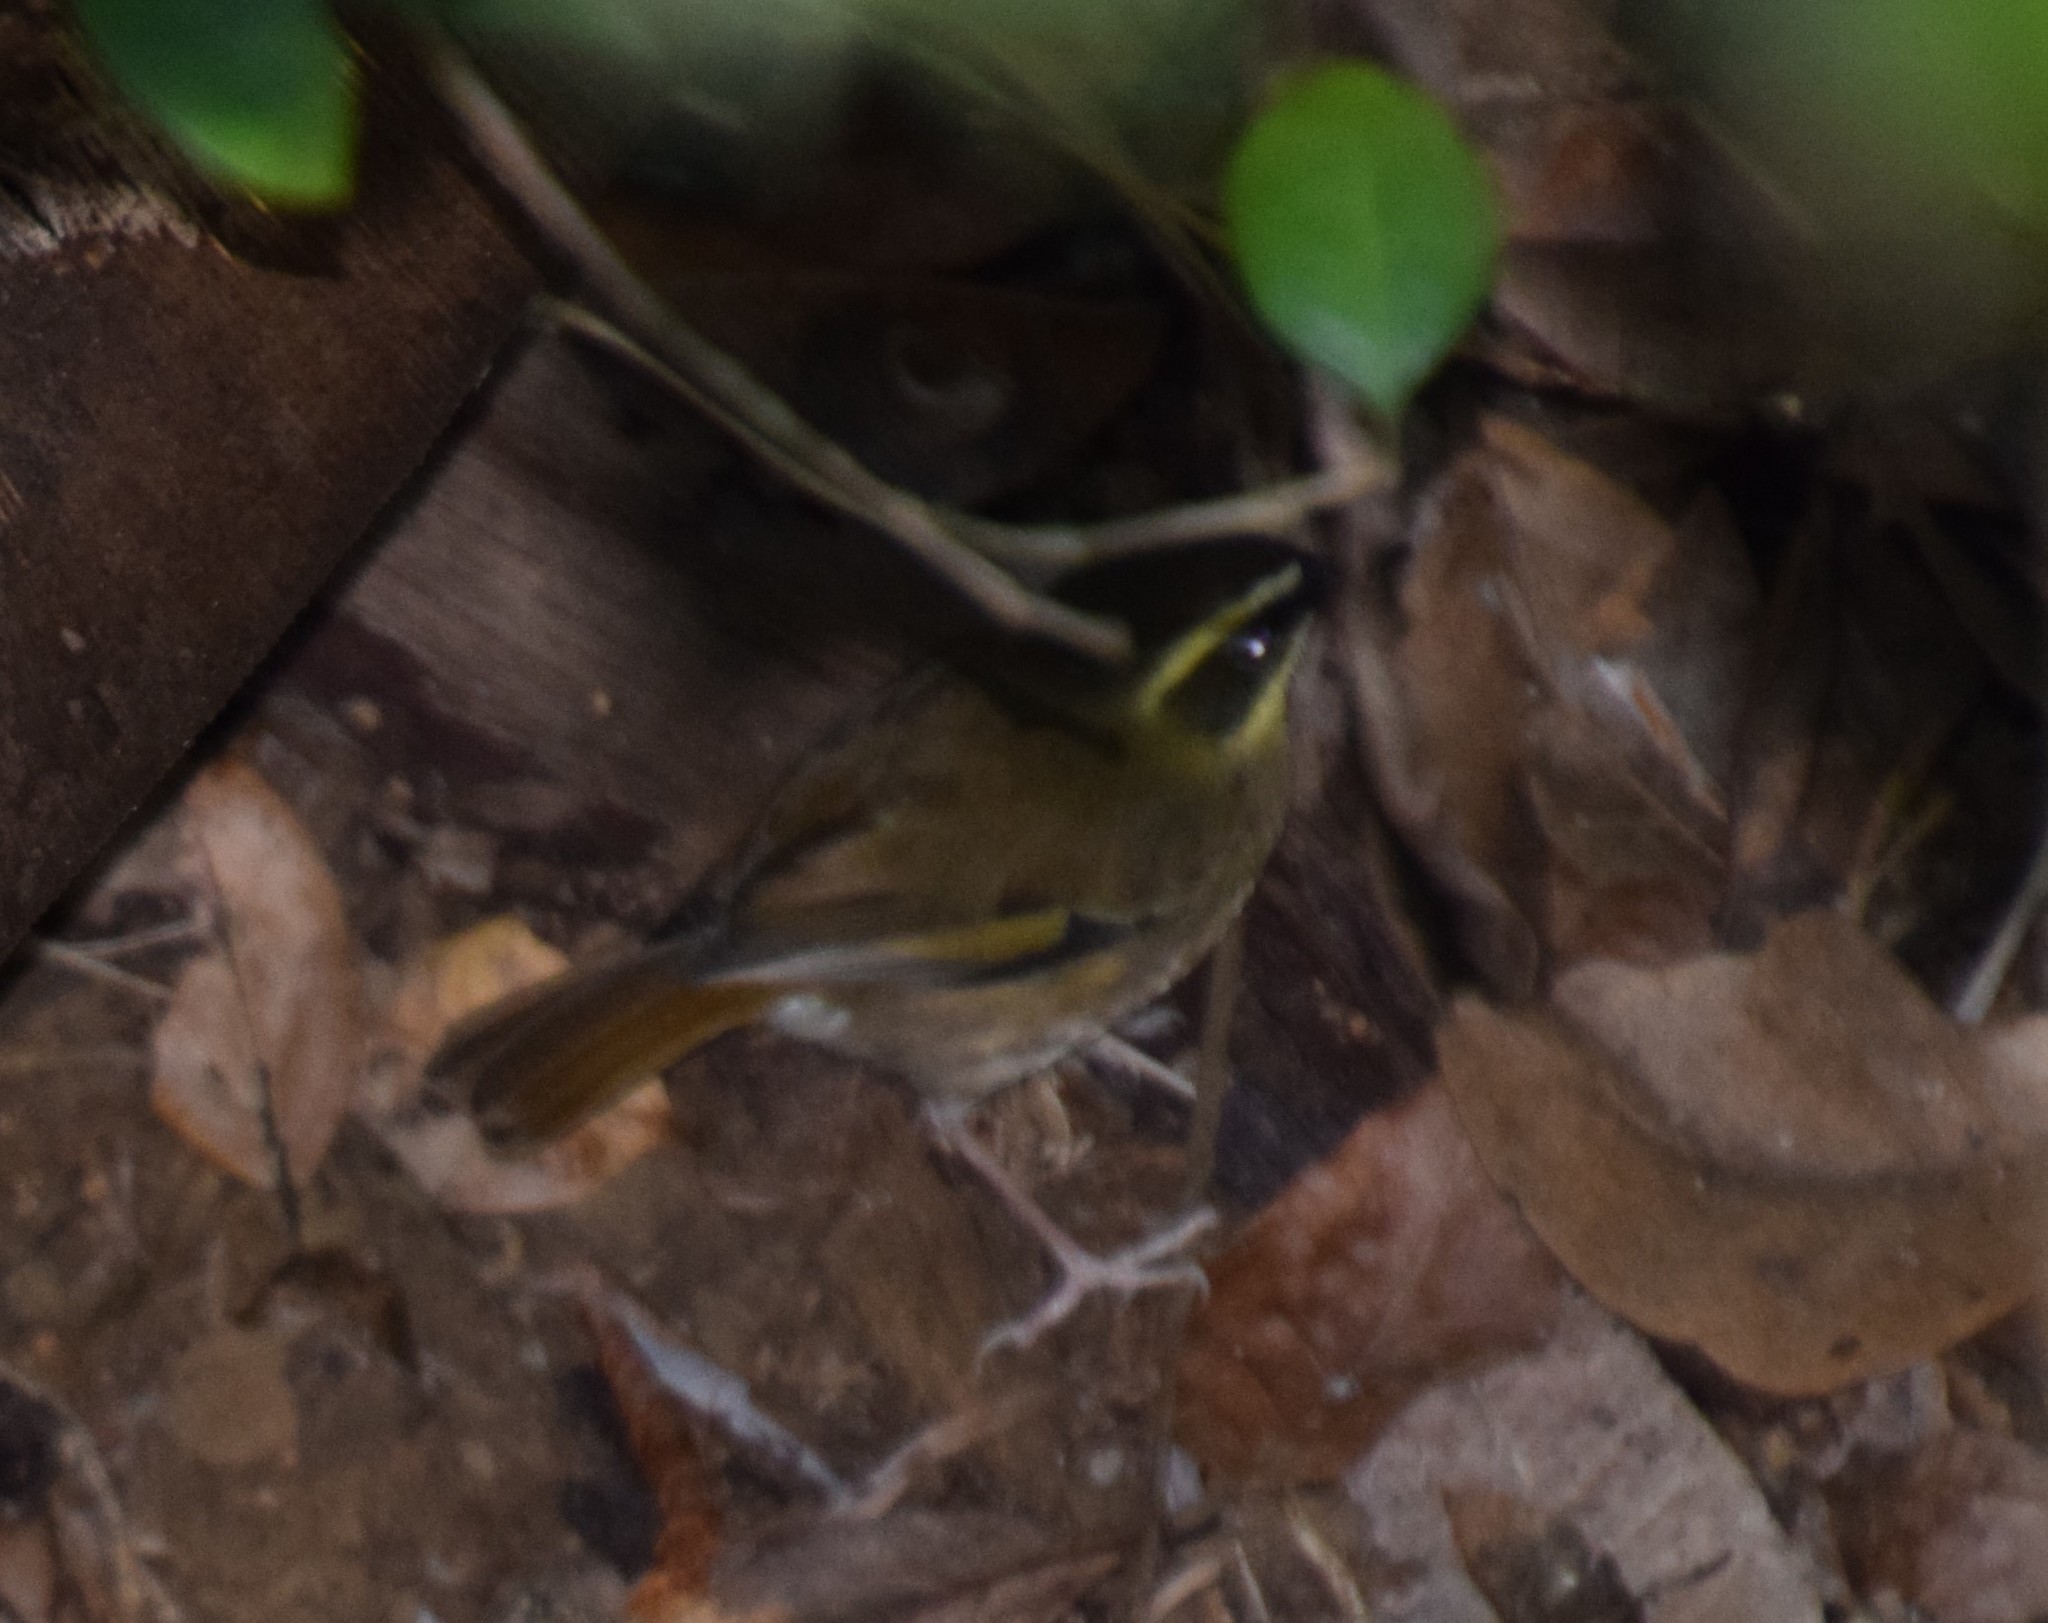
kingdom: Animalia
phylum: Chordata
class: Aves
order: Passeriformes
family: Acanthizidae
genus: Sericornis
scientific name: Sericornis citreogularis
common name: Yellow-throated scrubwren
